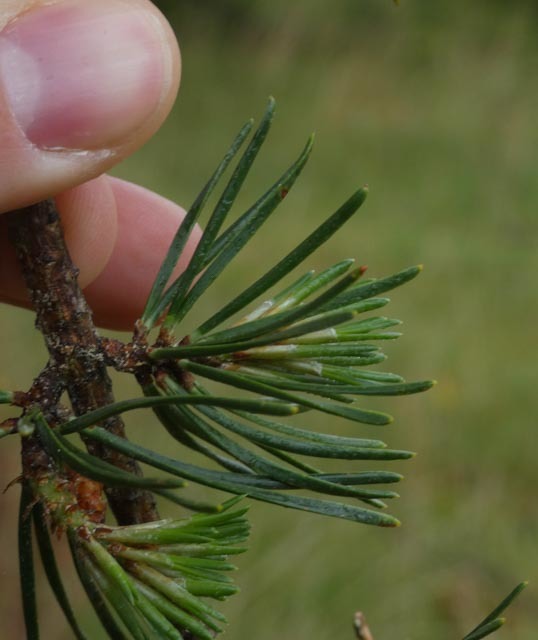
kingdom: Plantae
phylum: Tracheophyta
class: Pinopsida
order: Pinales
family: Pinaceae
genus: Pinus
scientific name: Pinus virginiana
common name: Scrub pine
